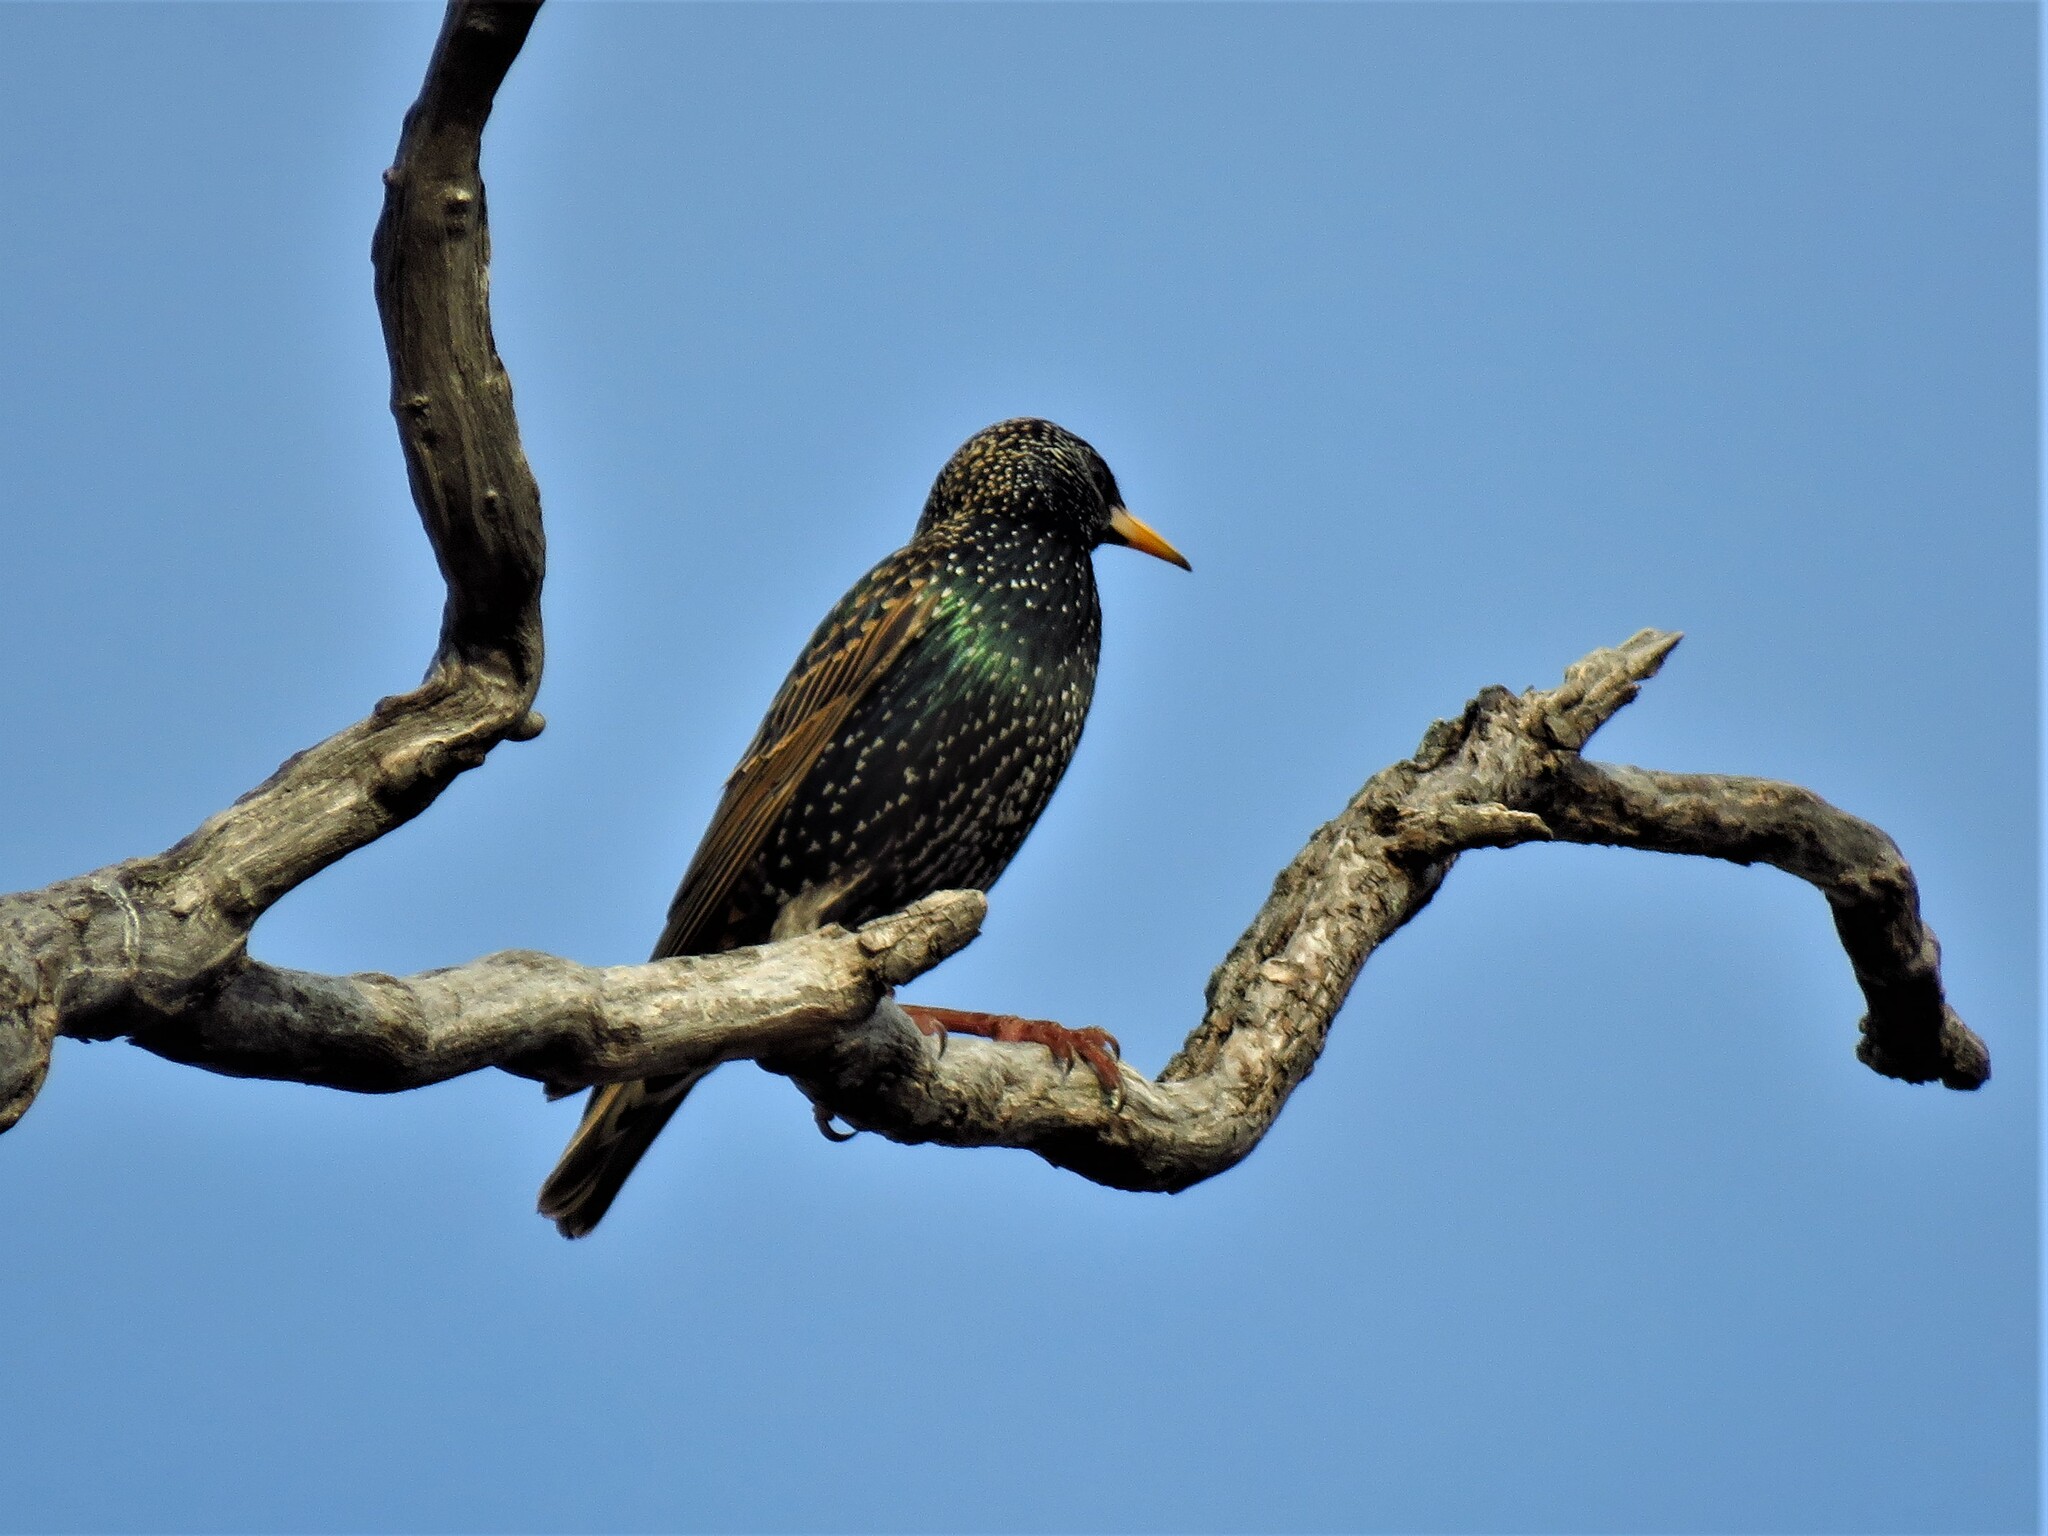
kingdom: Animalia
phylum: Chordata
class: Aves
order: Passeriformes
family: Sturnidae
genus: Sturnus
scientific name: Sturnus vulgaris
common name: Common starling
